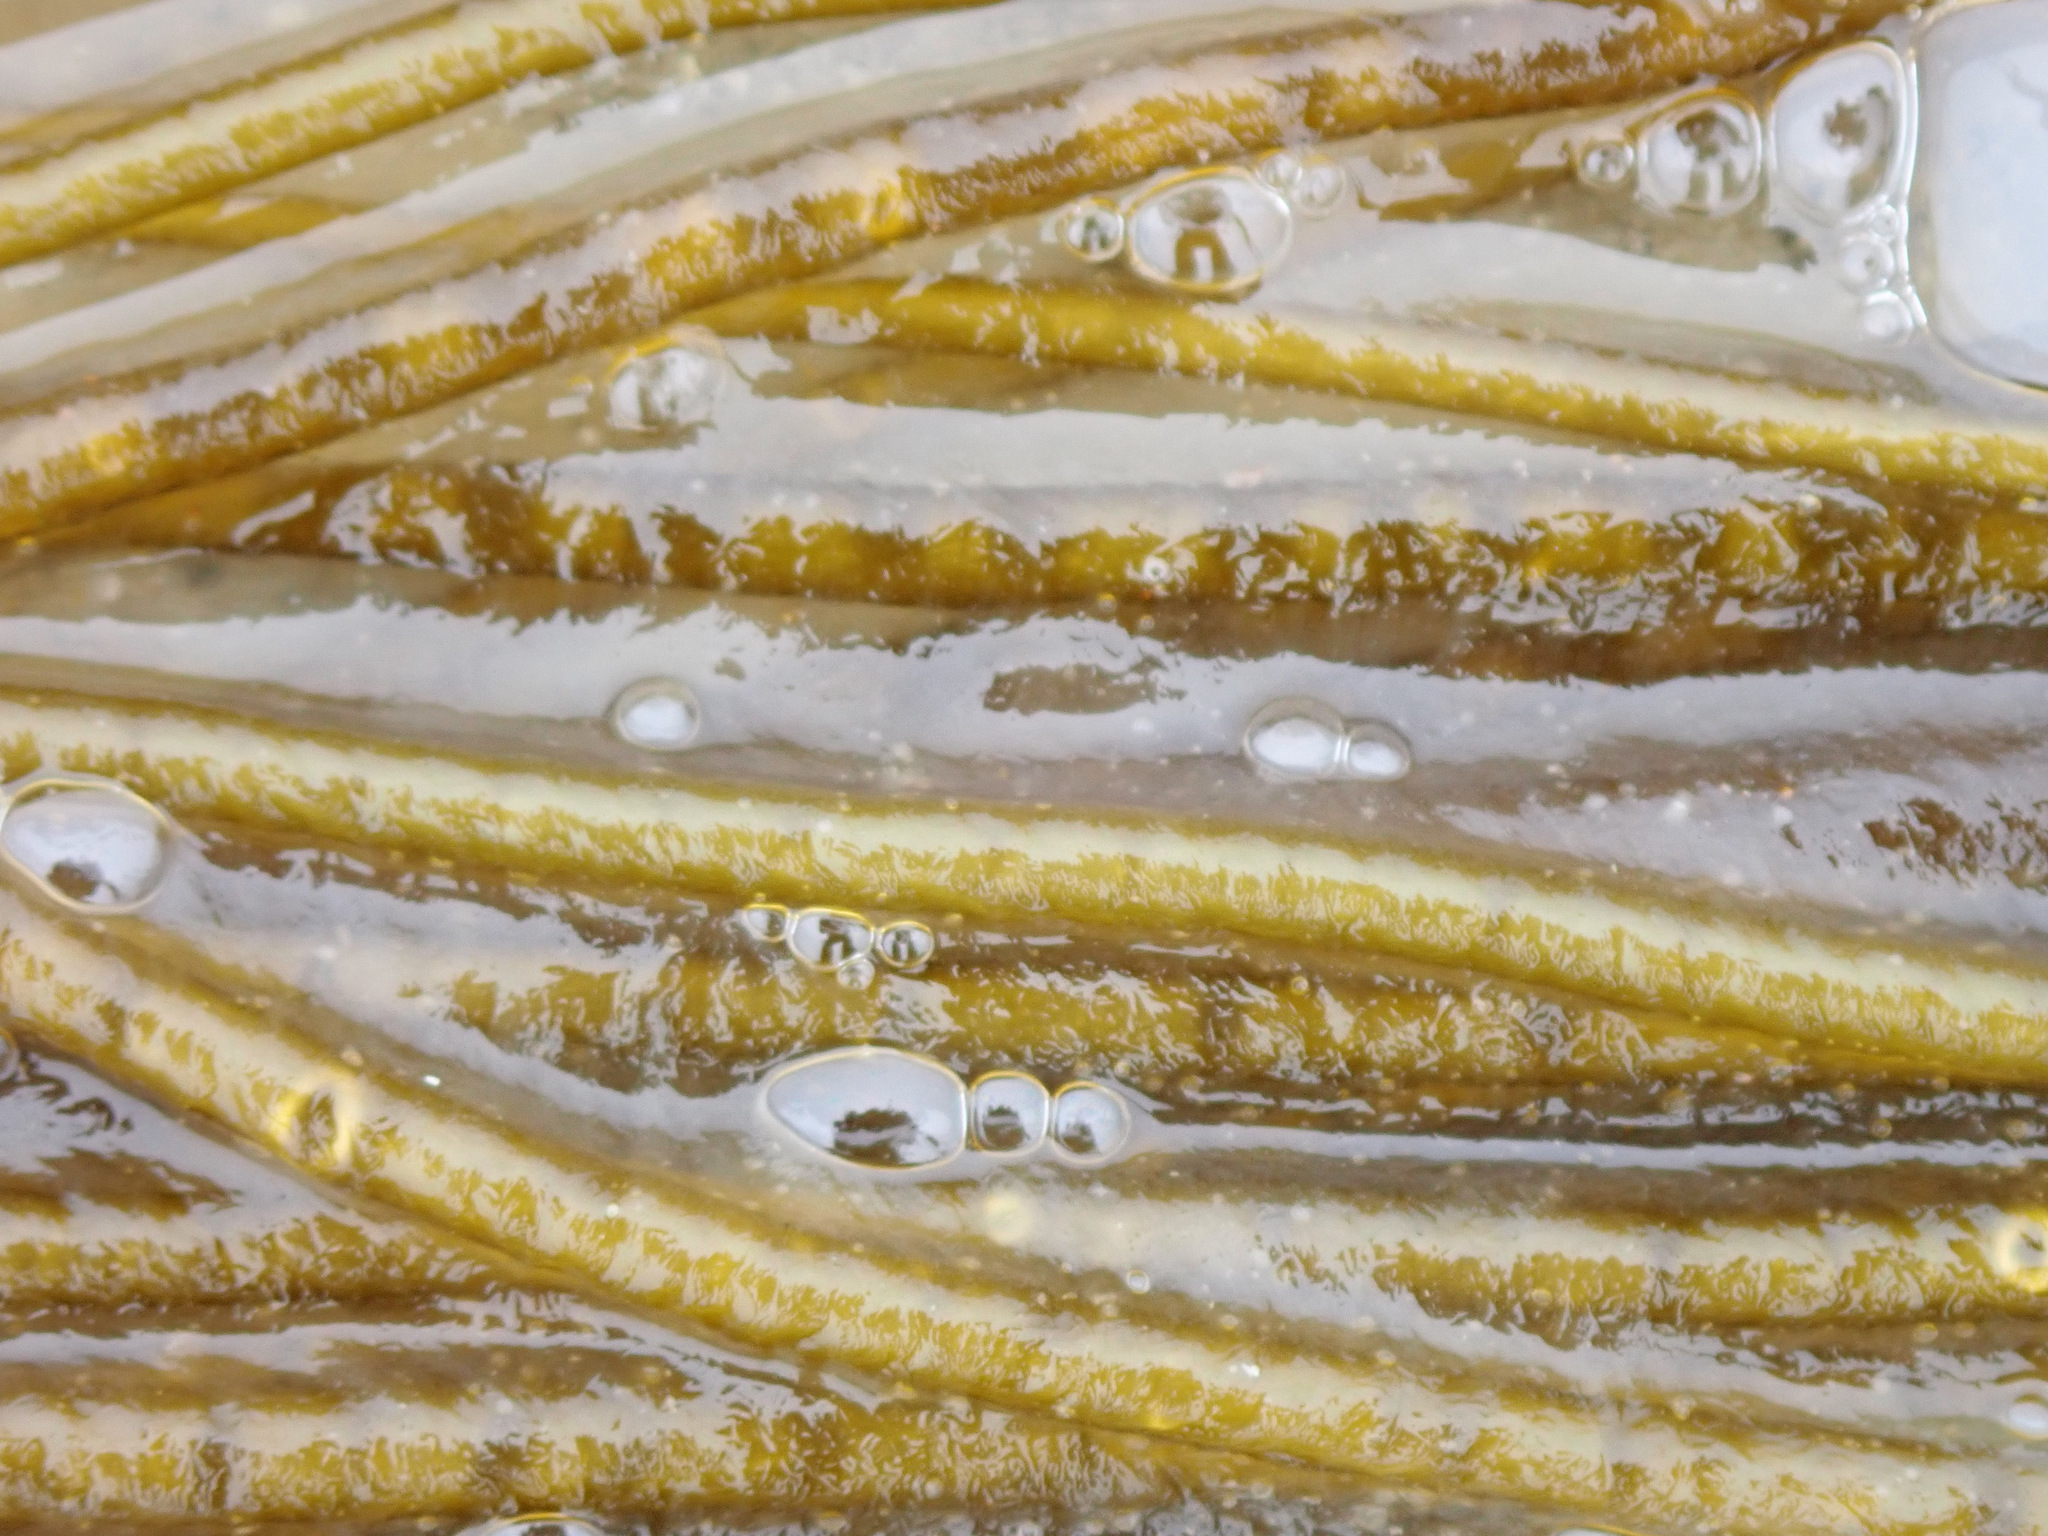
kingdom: Chromista
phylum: Ochrophyta
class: Phaeophyceae
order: Laminariales
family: Chordaceae
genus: Chorda
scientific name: Chorda filum
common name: Mermaid's tresses
